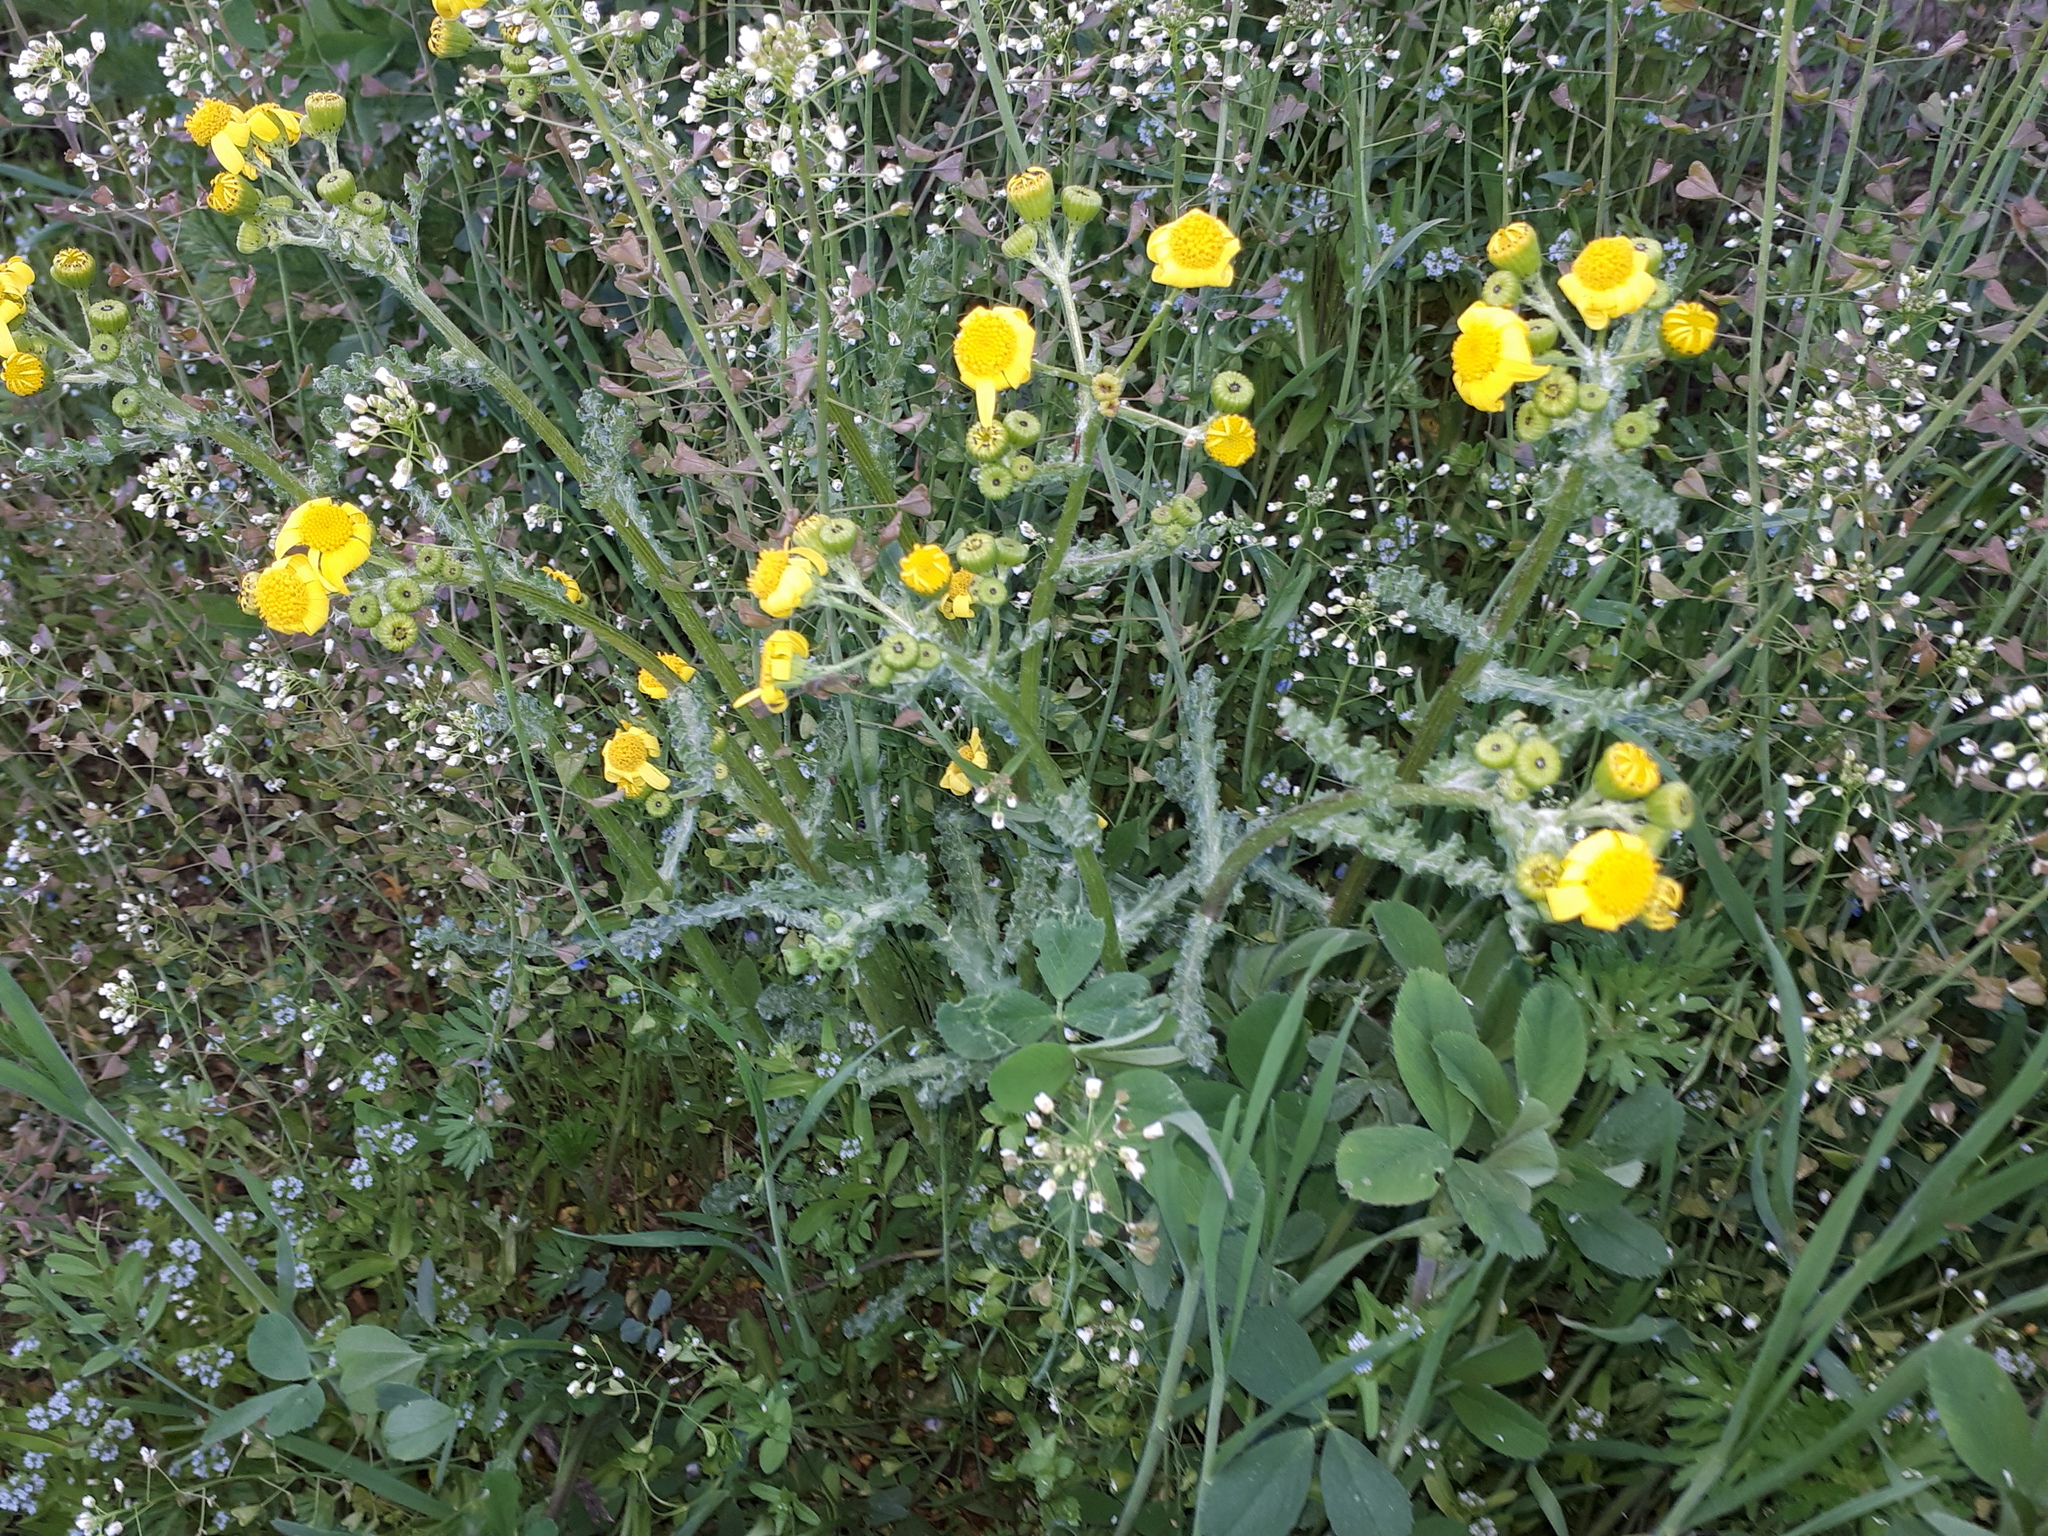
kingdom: Plantae
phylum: Tracheophyta
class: Magnoliopsida
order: Asterales
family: Asteraceae
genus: Senecio
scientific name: Senecio vernalis
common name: Eastern groundsel
